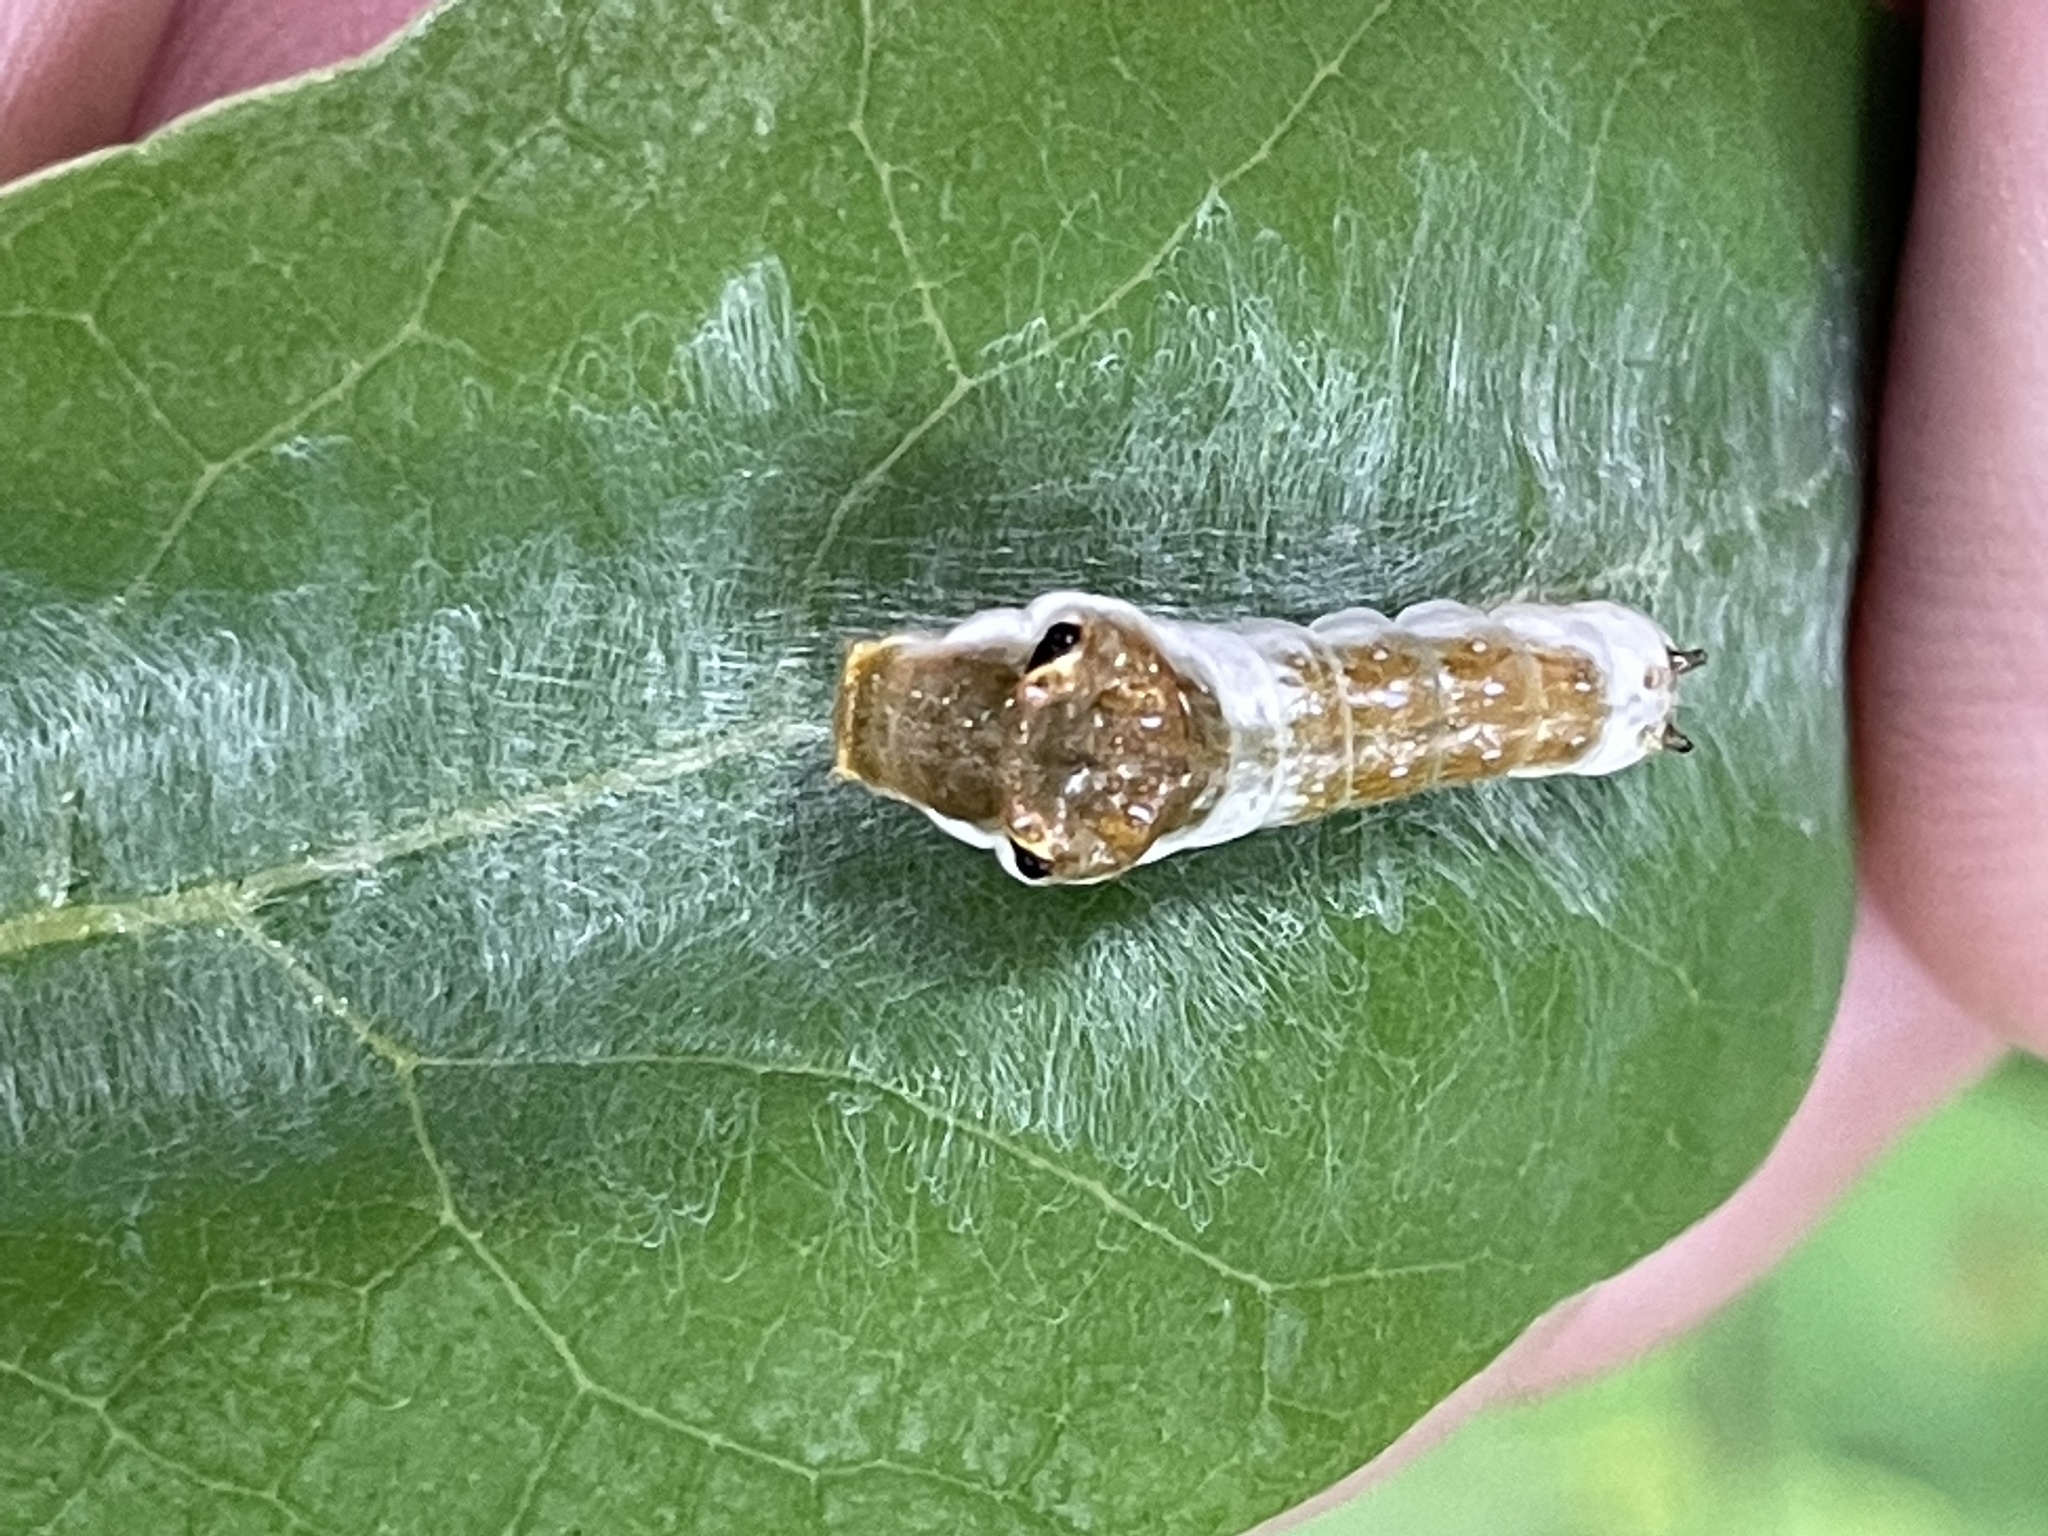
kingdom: Animalia
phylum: Arthropoda
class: Insecta
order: Lepidoptera
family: Papilionidae
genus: Papilio
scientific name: Papilio troilus
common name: Spicebush swallowtail
